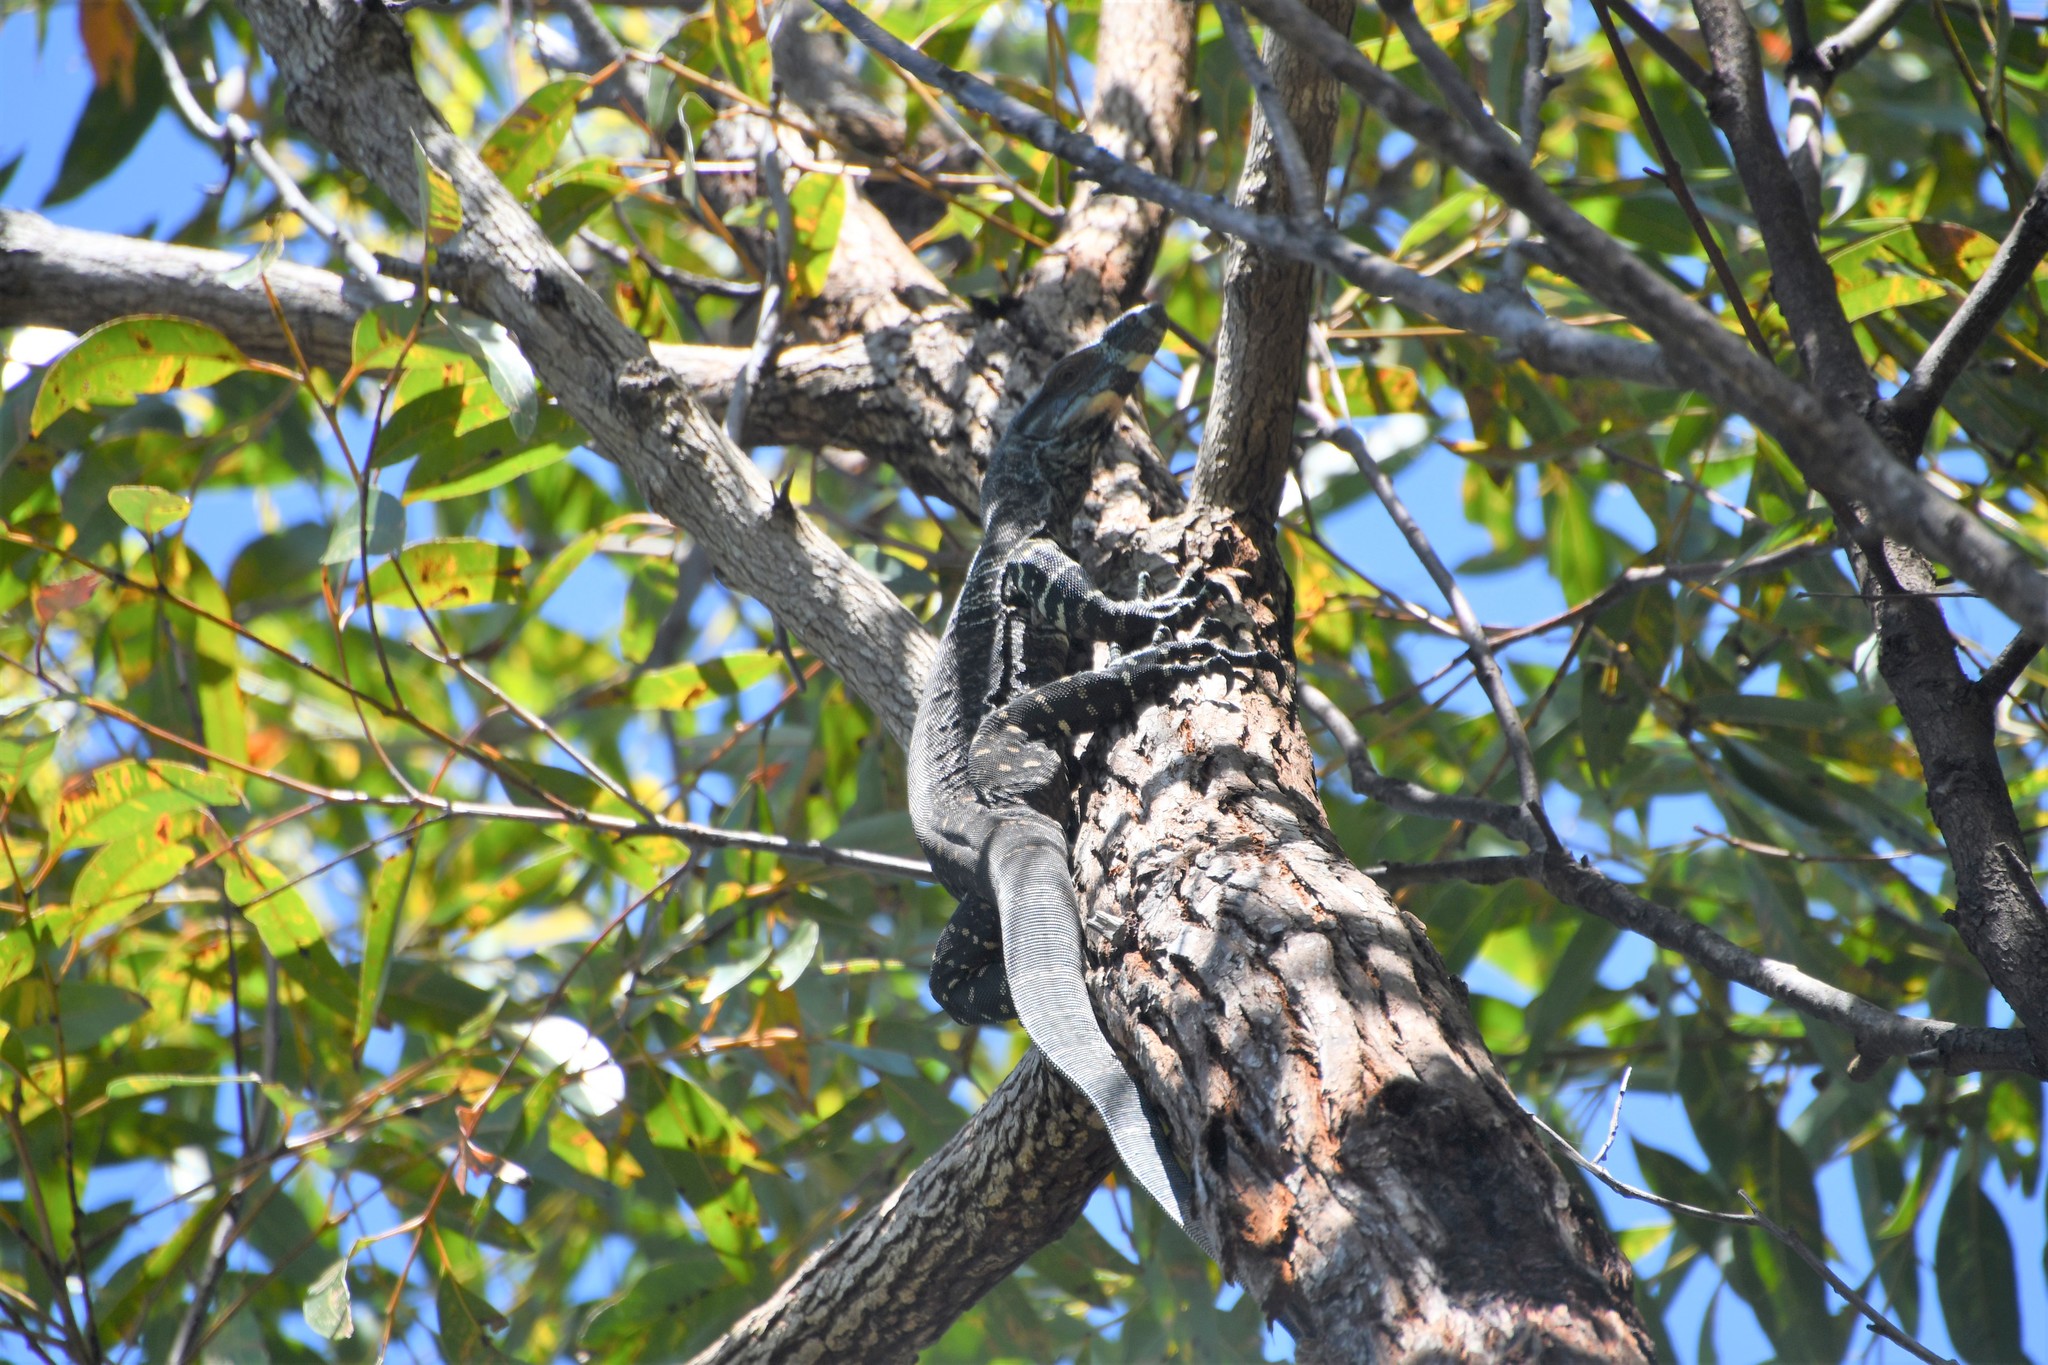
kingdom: Animalia
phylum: Chordata
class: Squamata
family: Varanidae
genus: Varanus
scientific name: Varanus varius
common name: Lace monitor
